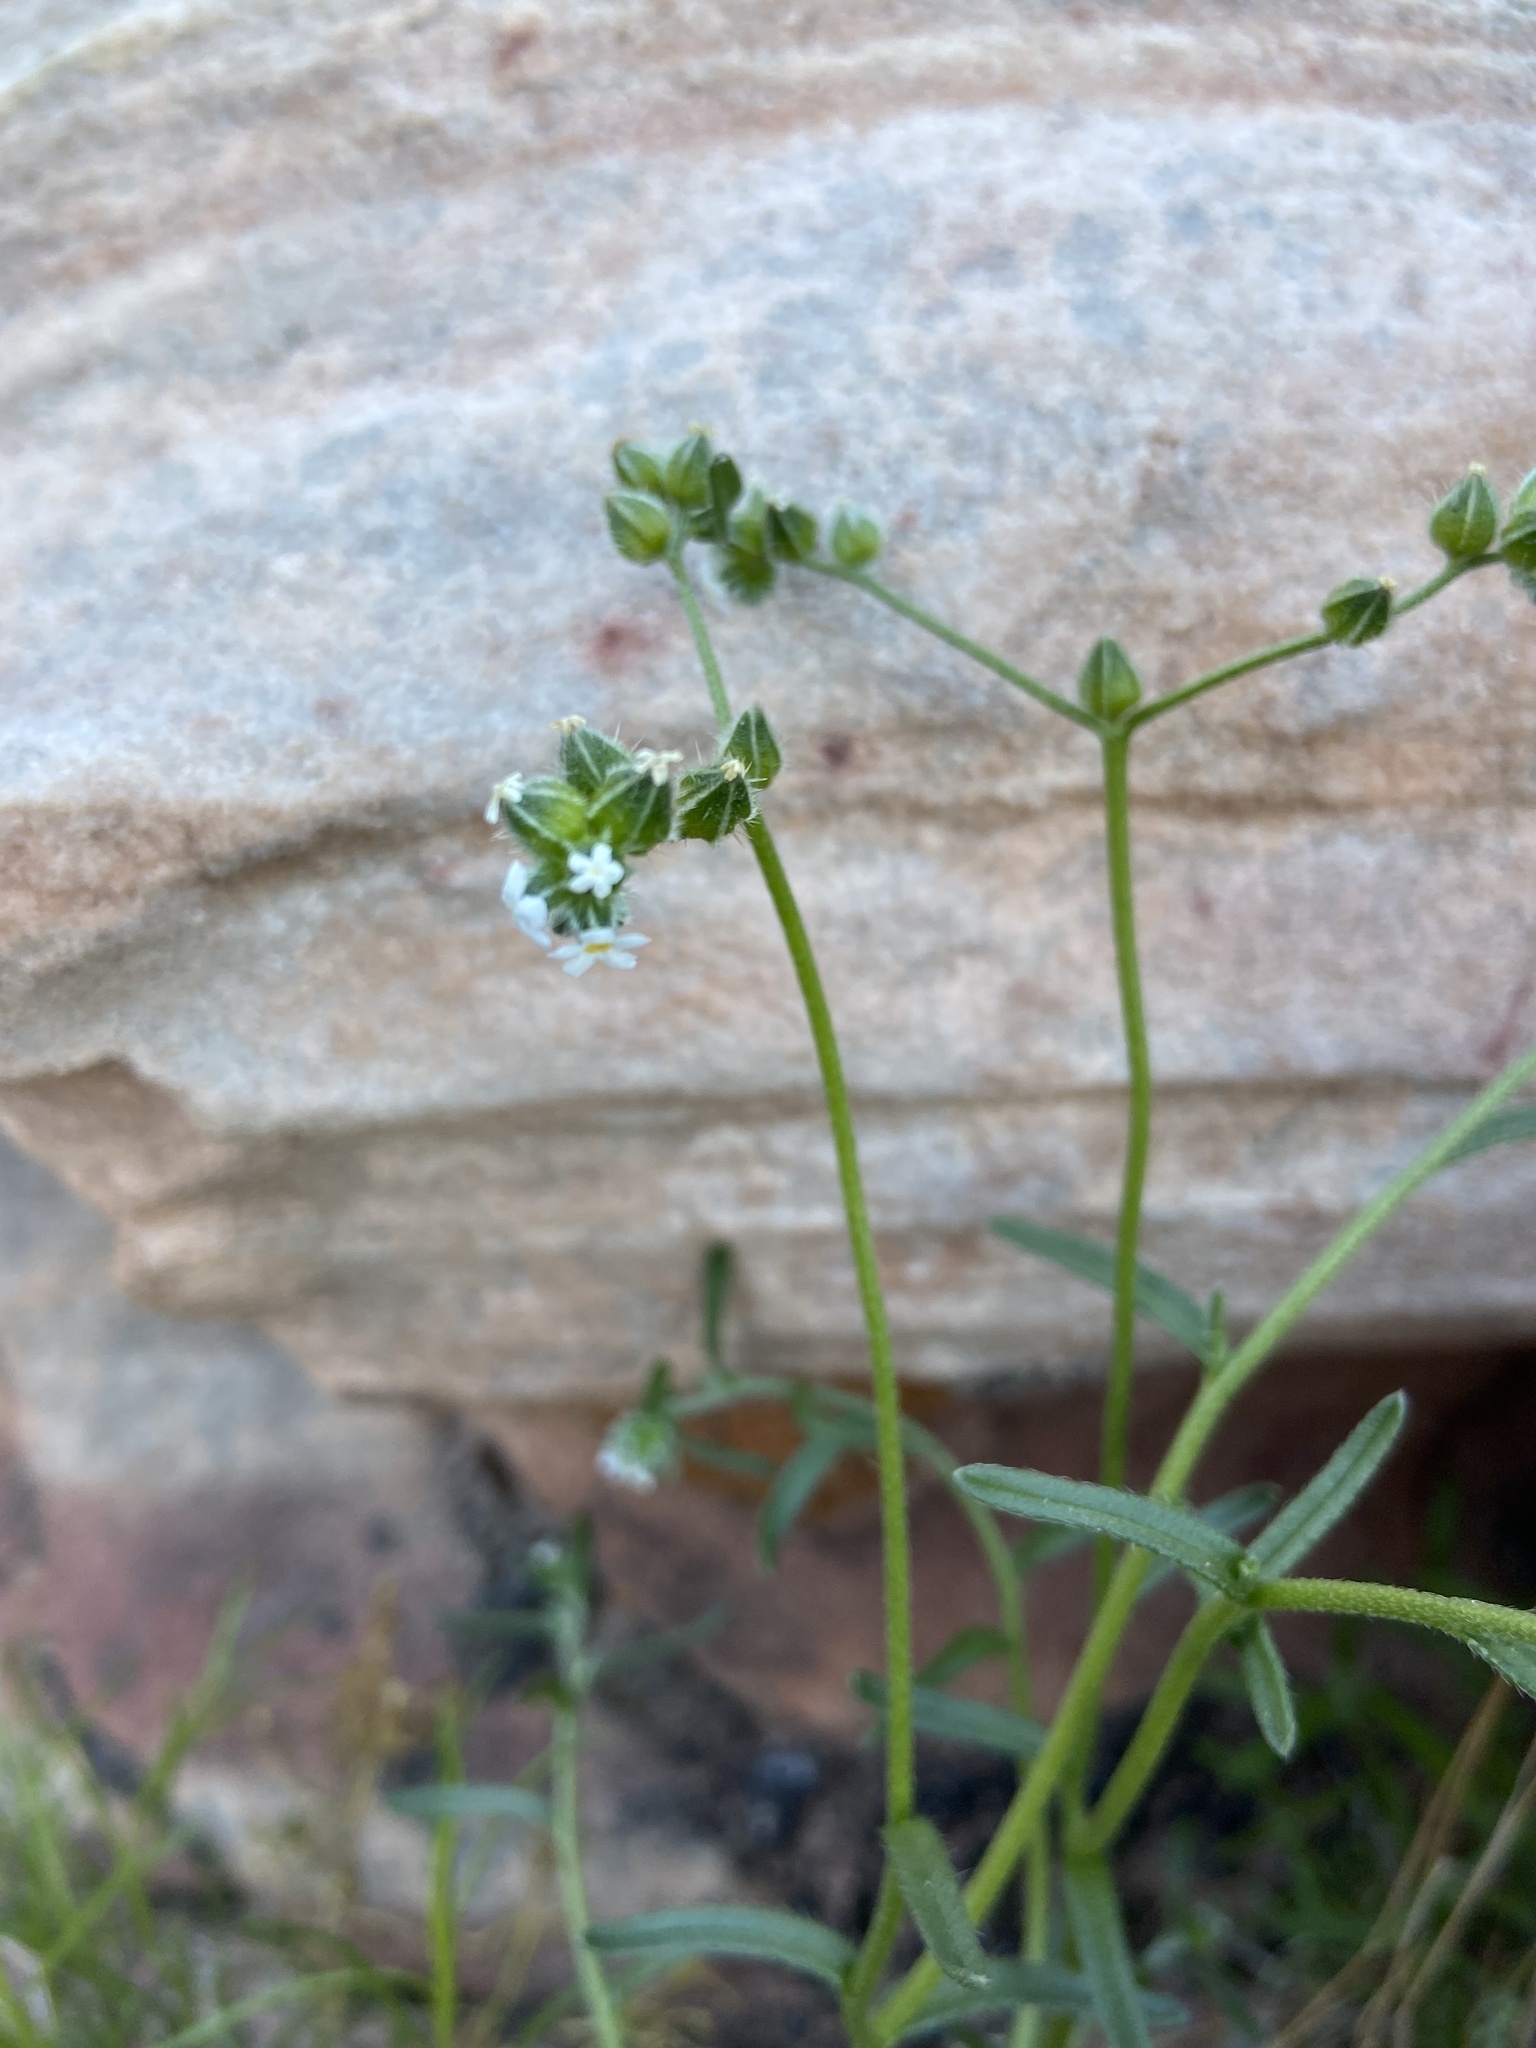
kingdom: Plantae
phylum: Tracheophyta
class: Magnoliopsida
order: Boraginales
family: Boraginaceae
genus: Cryptantha
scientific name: Cryptantha pterocarya
